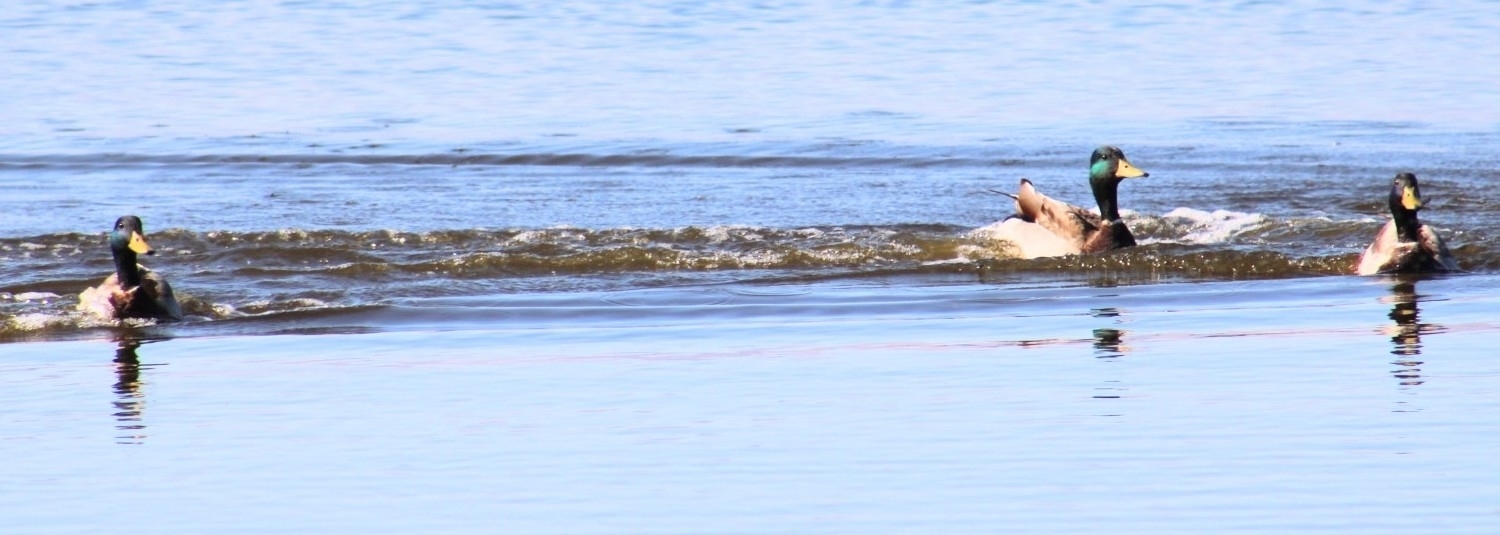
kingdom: Animalia
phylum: Chordata
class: Aves
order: Anseriformes
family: Anatidae
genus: Anas
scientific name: Anas platyrhynchos
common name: Mallard
